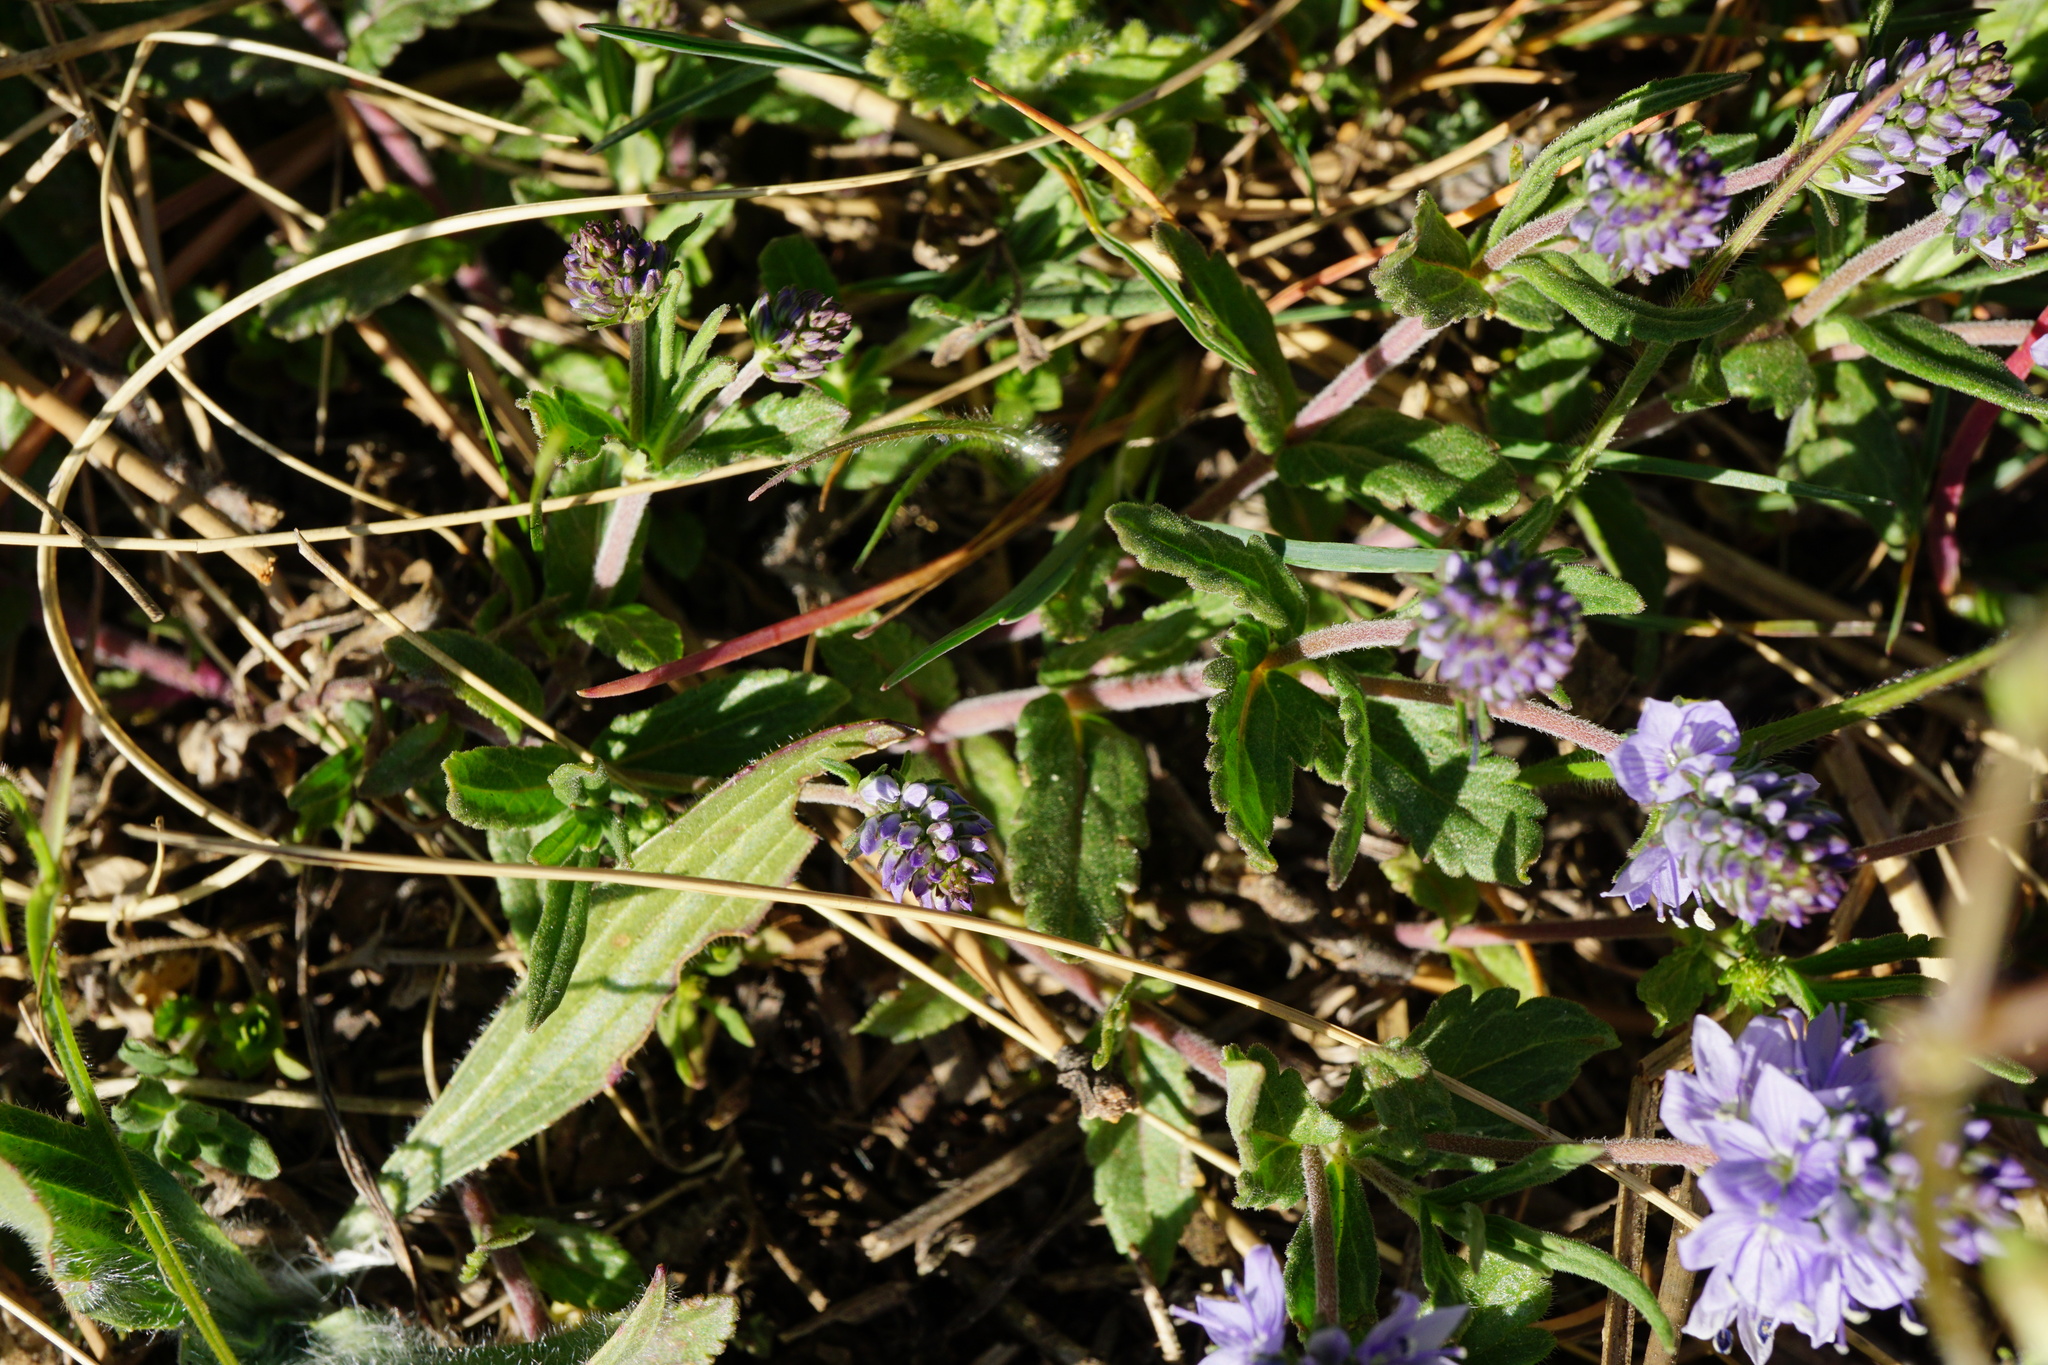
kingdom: Plantae
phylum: Tracheophyta
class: Magnoliopsida
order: Lamiales
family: Plantaginaceae
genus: Veronica
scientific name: Veronica prostrata
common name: Prostrate speedwell
